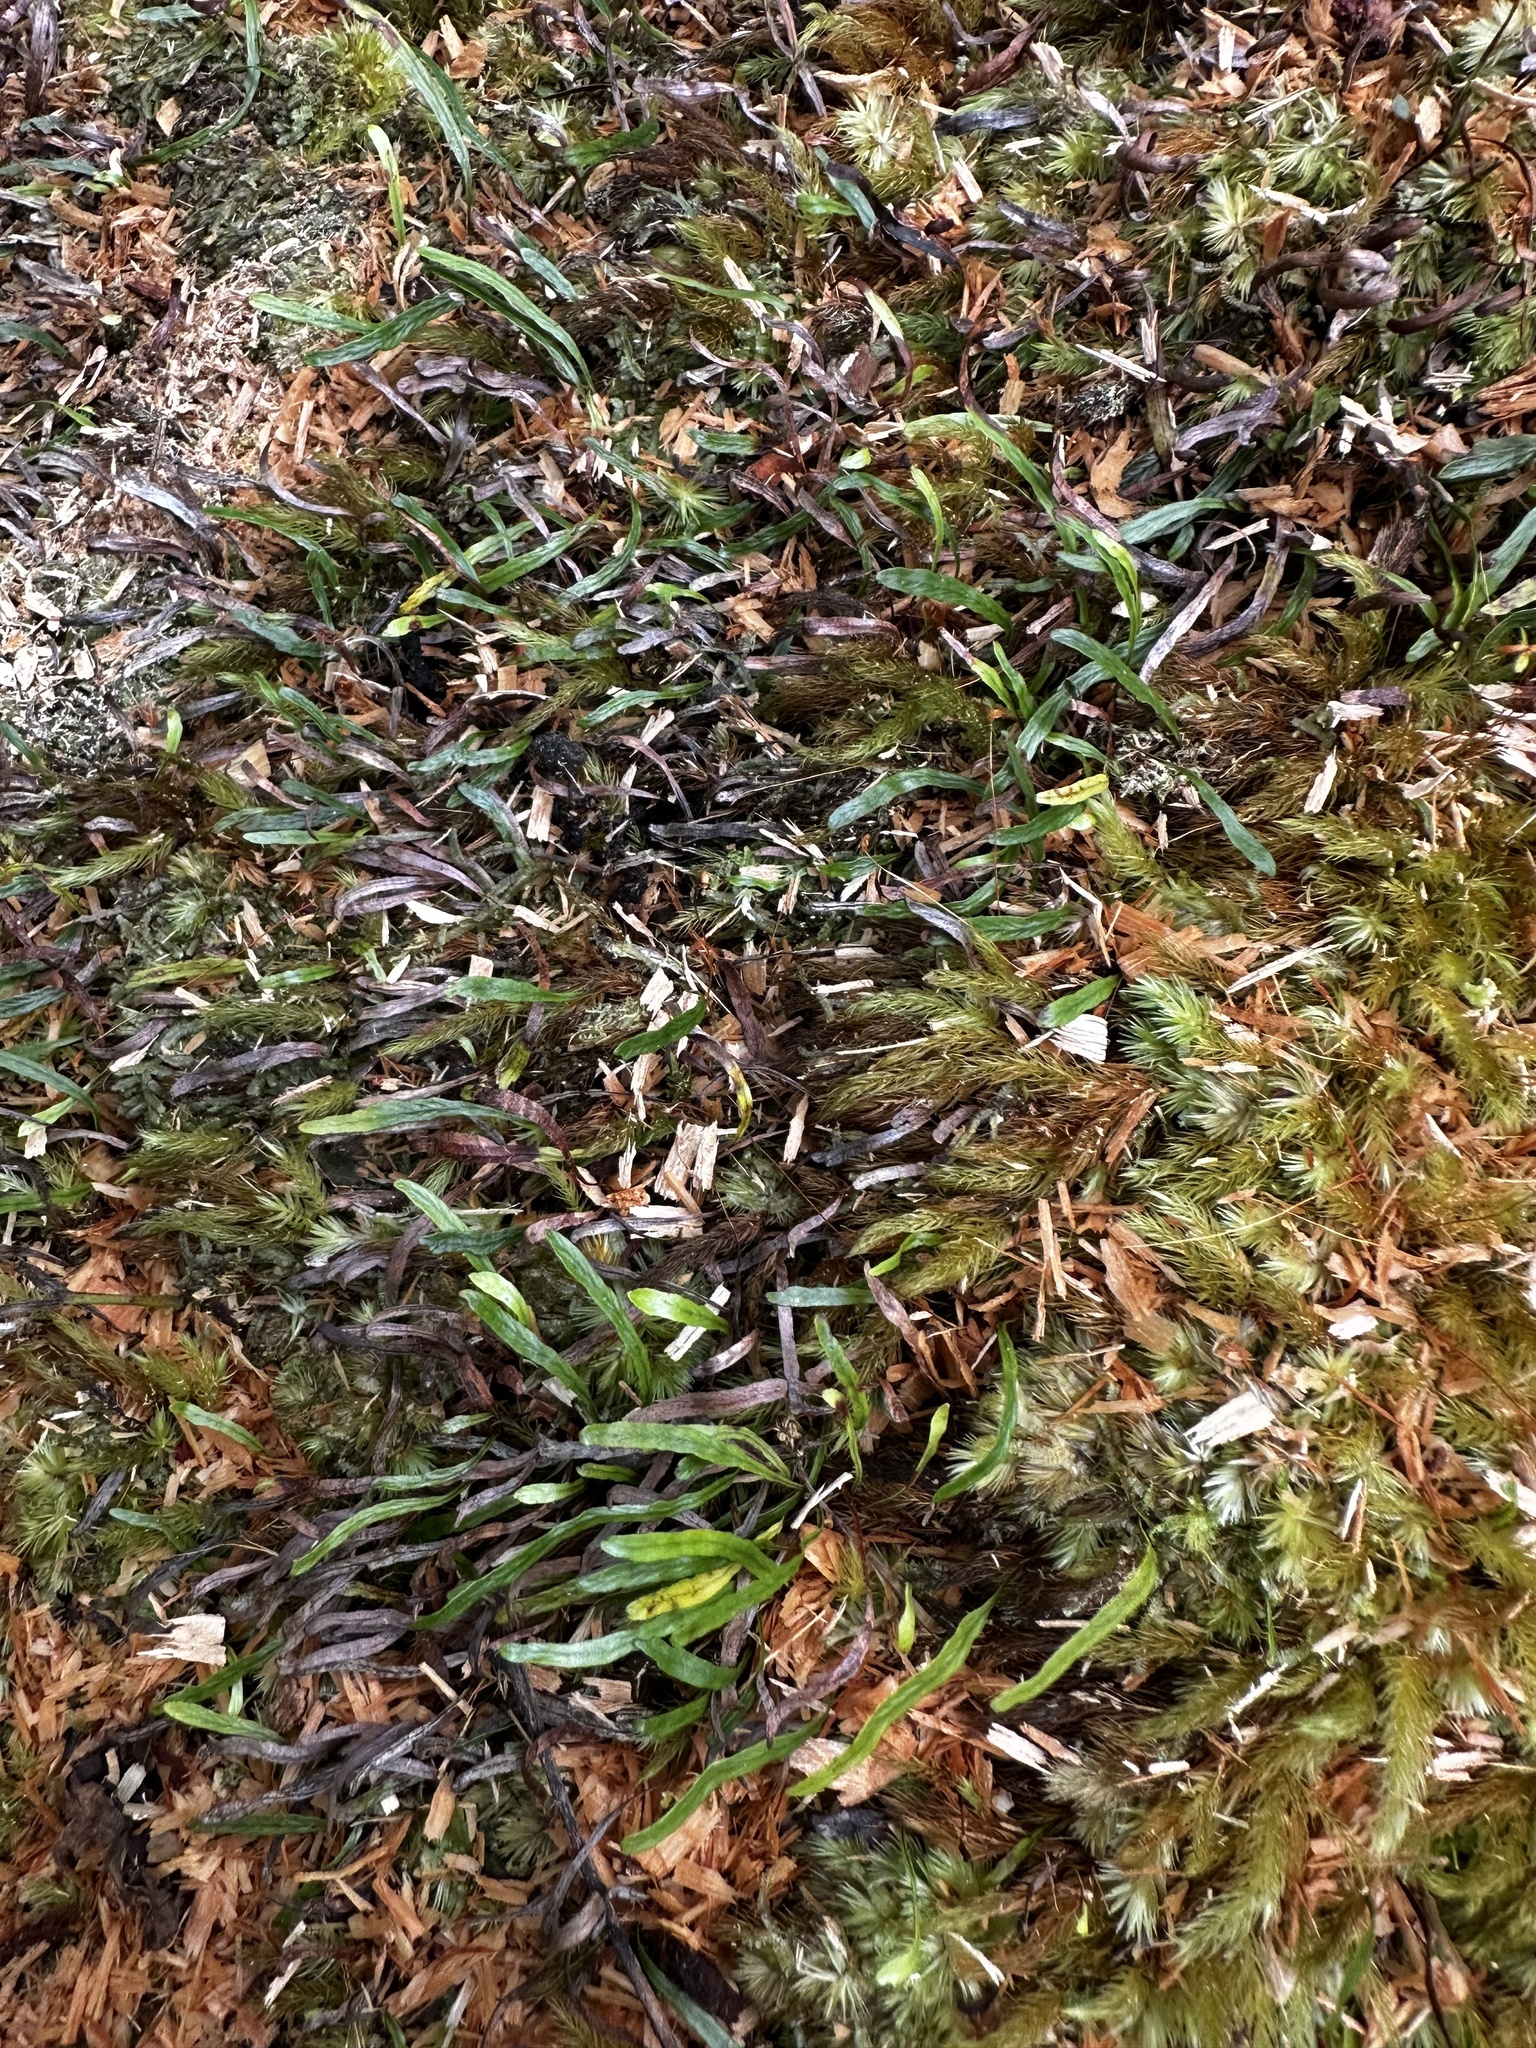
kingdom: Plantae
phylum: Tracheophyta
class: Polypodiopsida
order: Polypodiales
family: Polypodiaceae
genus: Adenophorus
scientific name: Adenophorus tenellus
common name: Kolokolo
